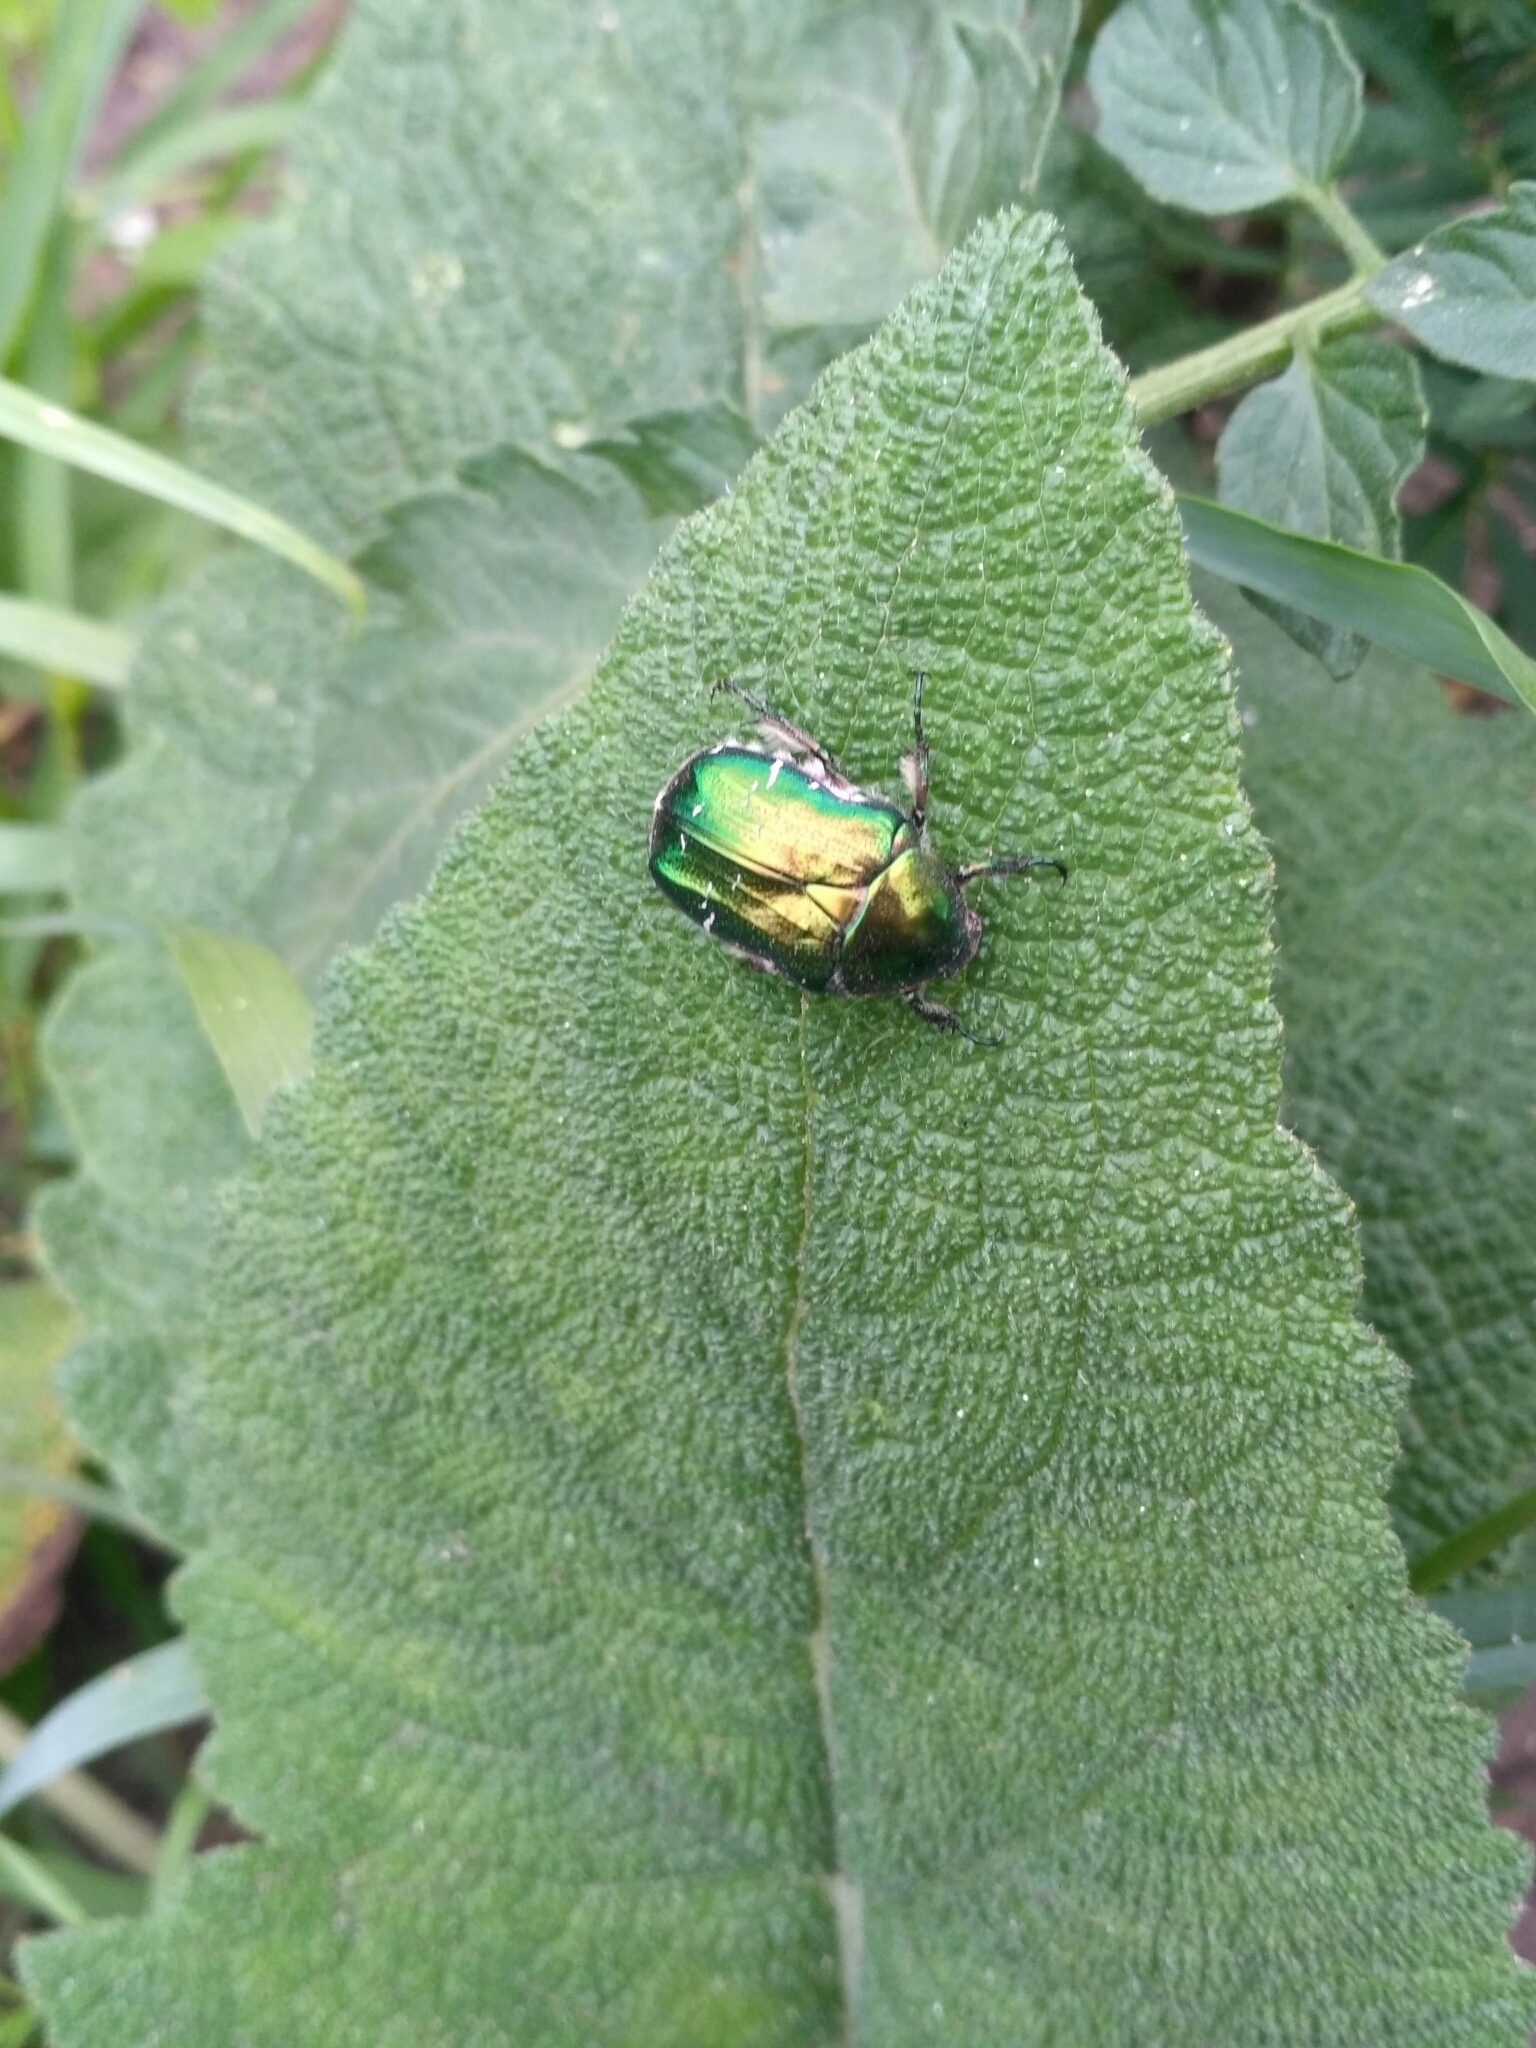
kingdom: Animalia
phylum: Arthropoda
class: Insecta
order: Coleoptera
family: Scarabaeidae
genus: Cetonia
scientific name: Cetonia aurata
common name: Rose chafer
